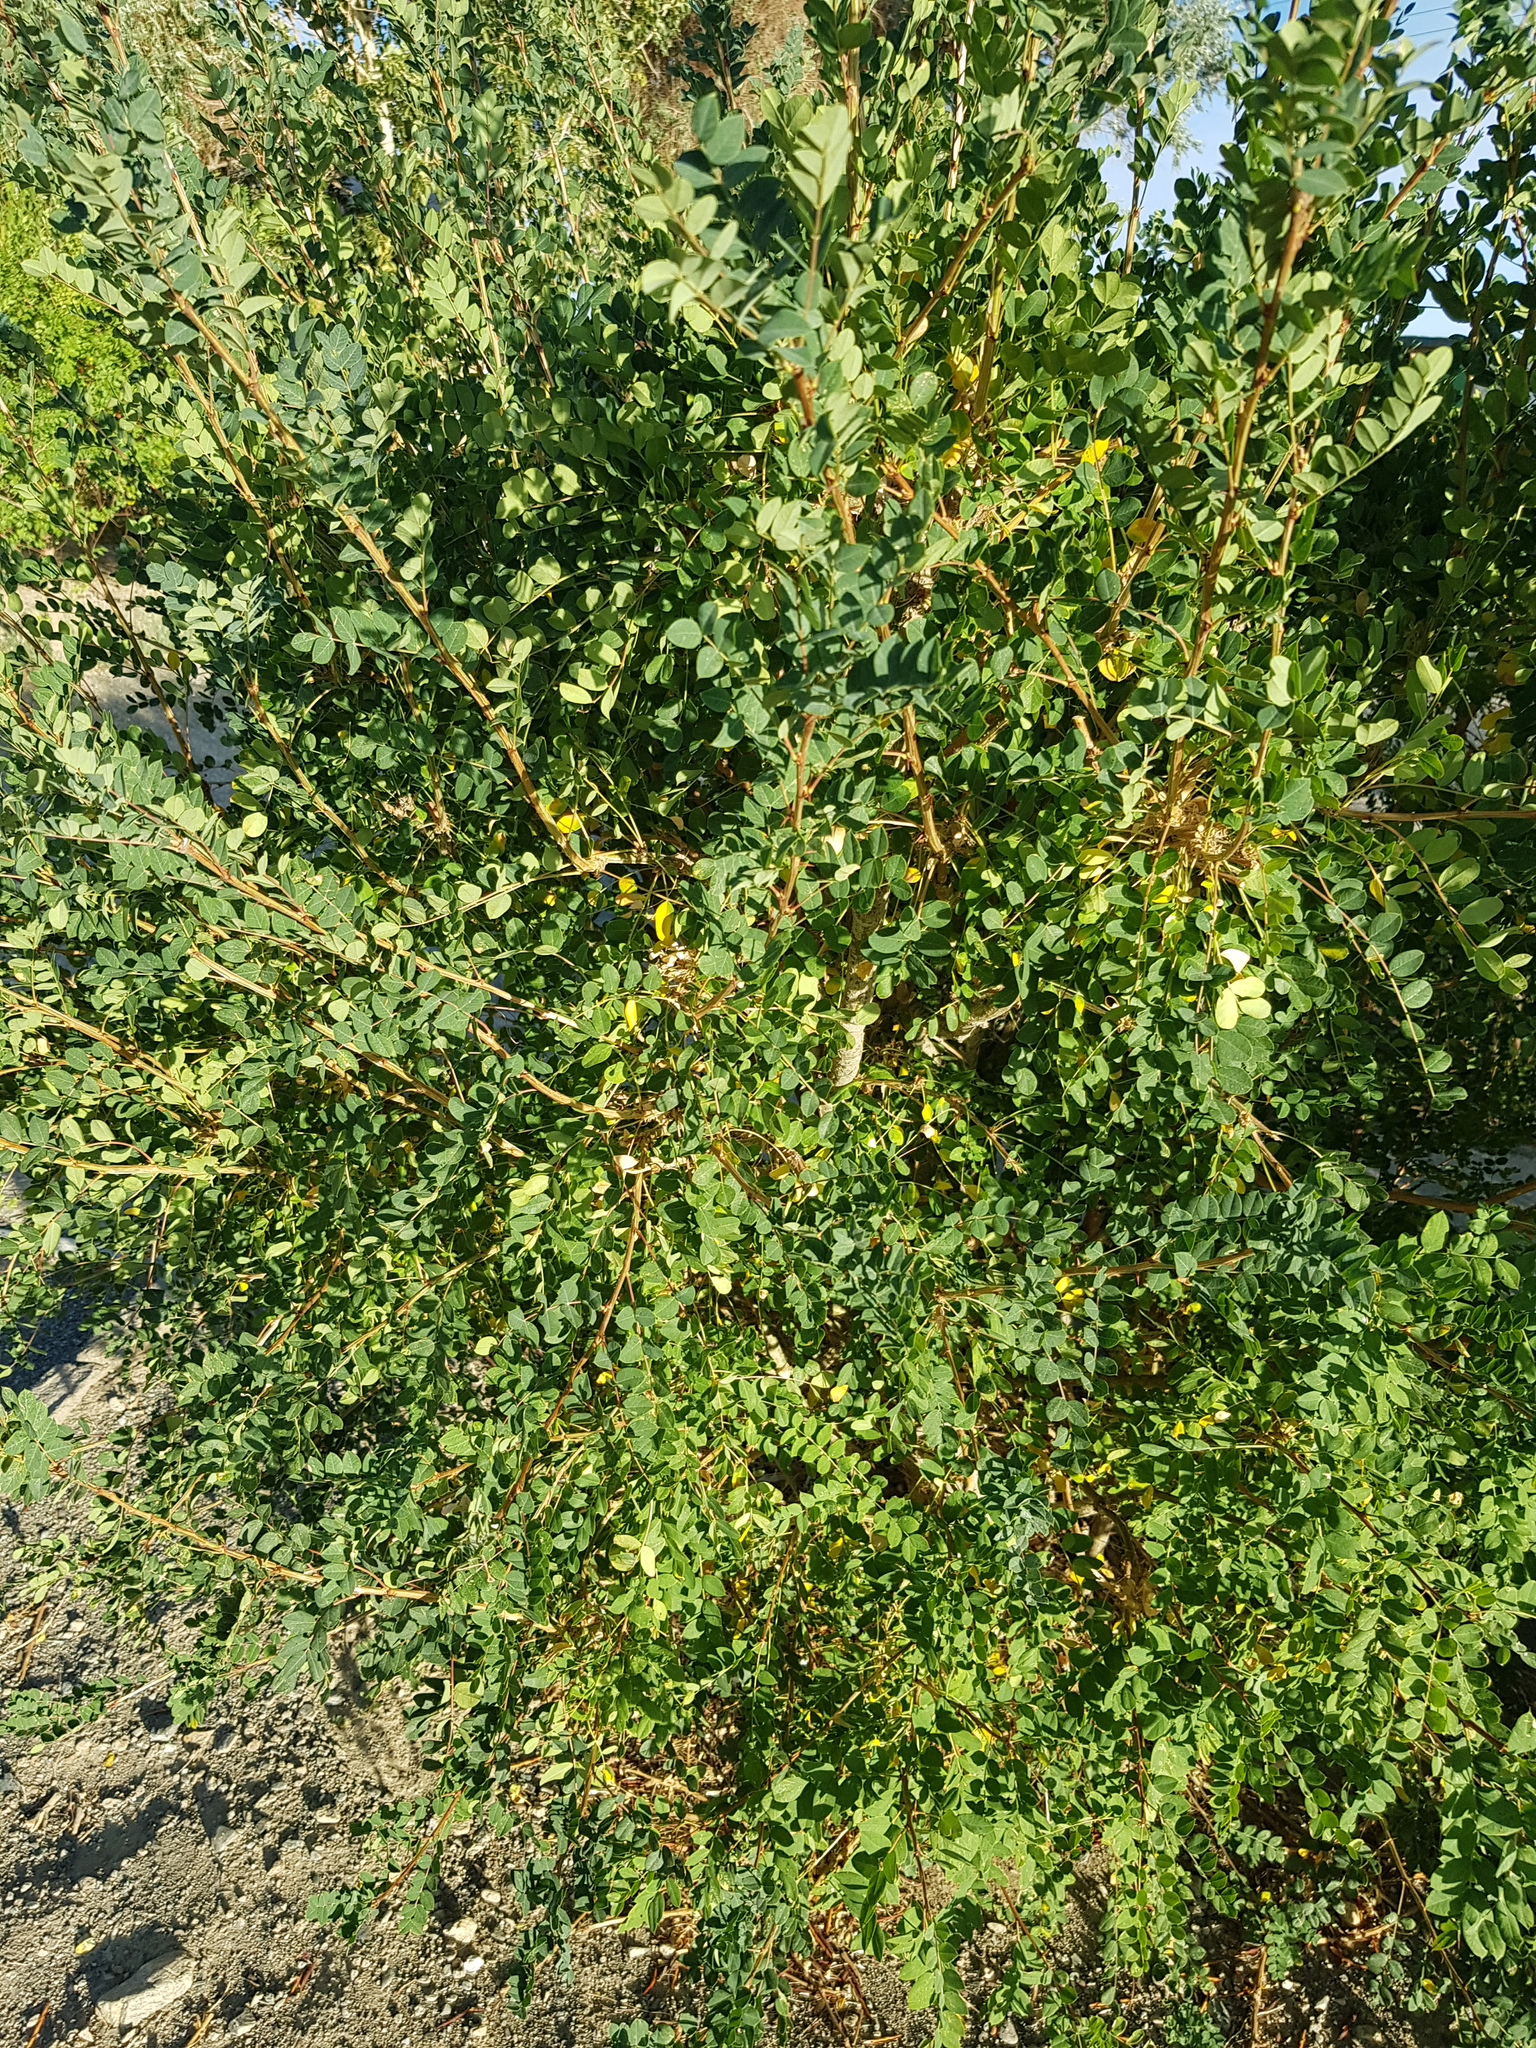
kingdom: Plantae
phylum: Tracheophyta
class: Magnoliopsida
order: Fabales
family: Fabaceae
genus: Caragana
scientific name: Caragana arborescens
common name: Siberian peashrub
